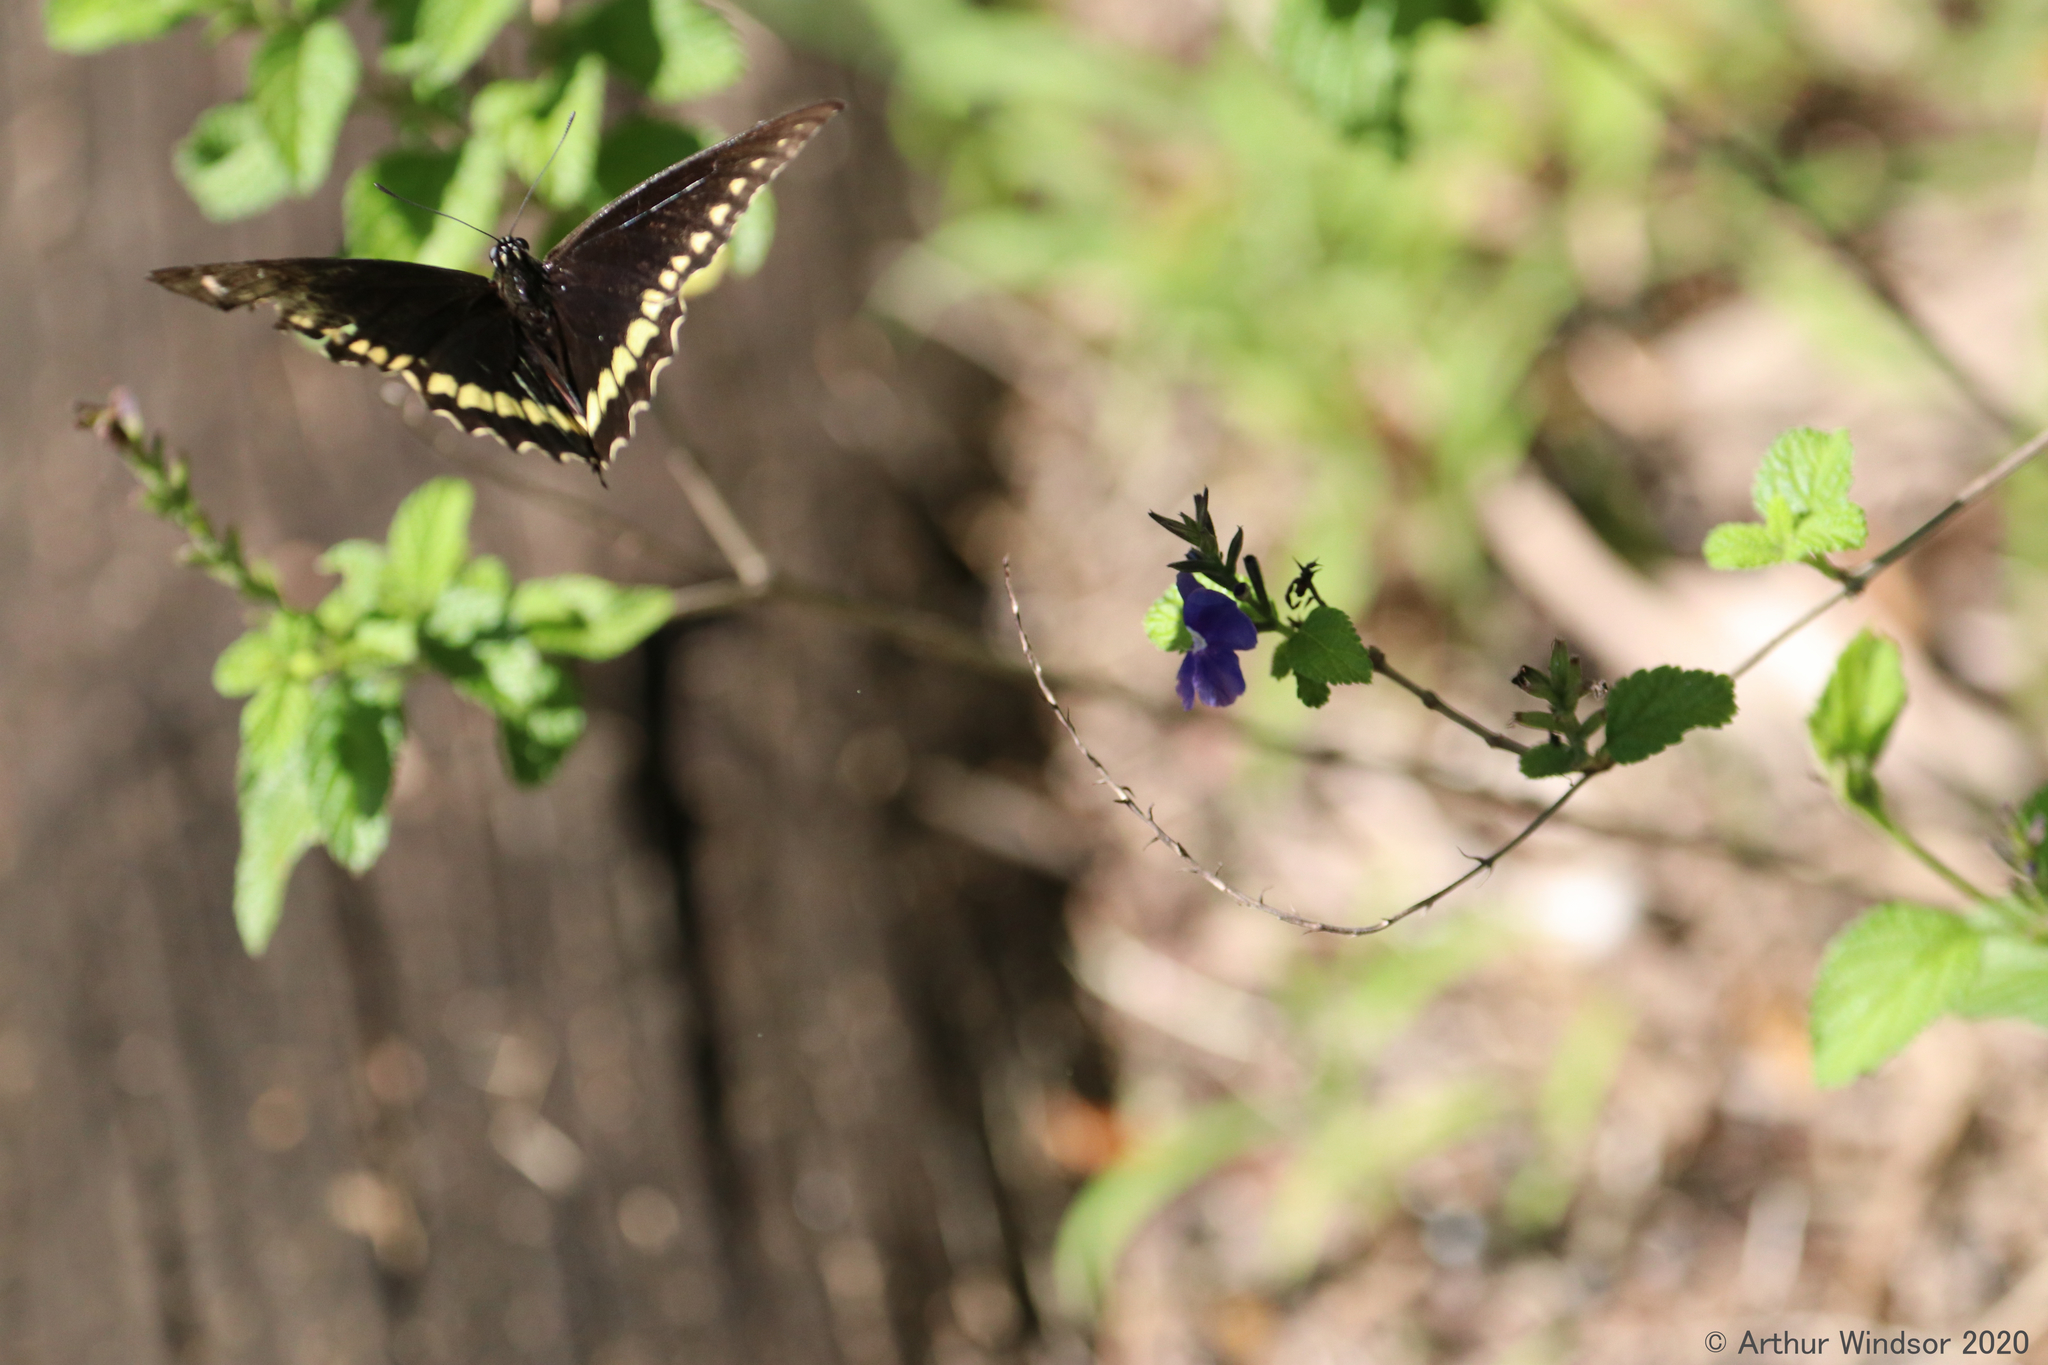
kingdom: Animalia
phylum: Arthropoda
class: Insecta
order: Lepidoptera
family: Papilionidae
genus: Battus
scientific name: Battus polydamas
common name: Polydamas swallowtail
